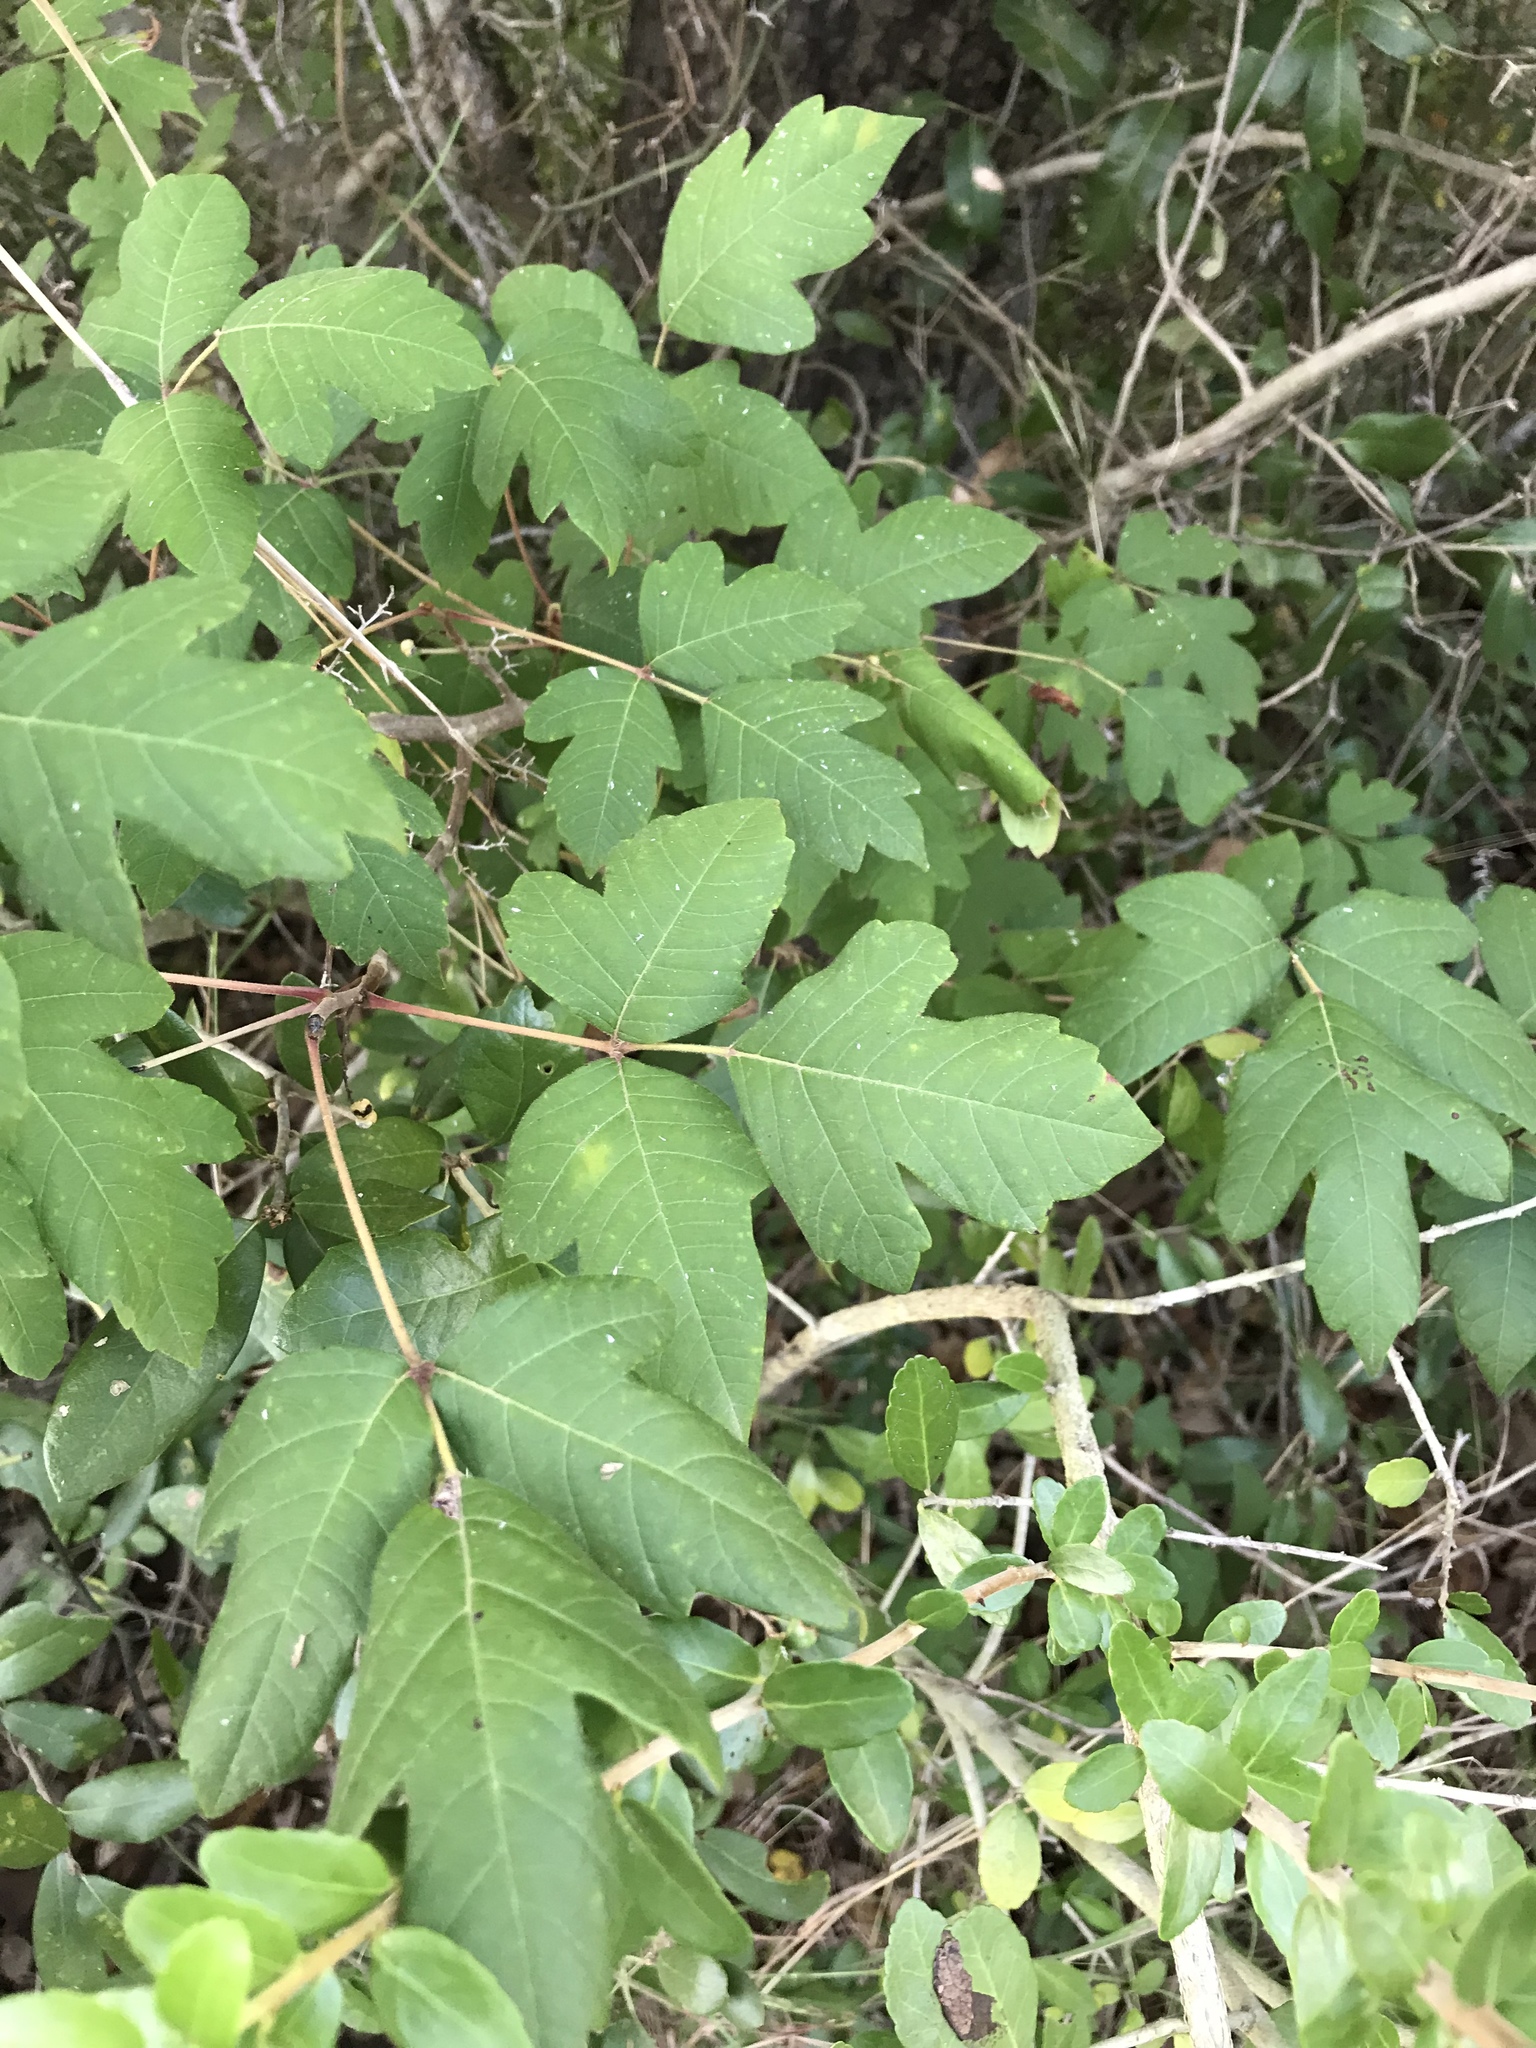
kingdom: Plantae
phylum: Tracheophyta
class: Magnoliopsida
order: Sapindales
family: Anacardiaceae
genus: Toxicodendron
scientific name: Toxicodendron radicans
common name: Poison ivy
